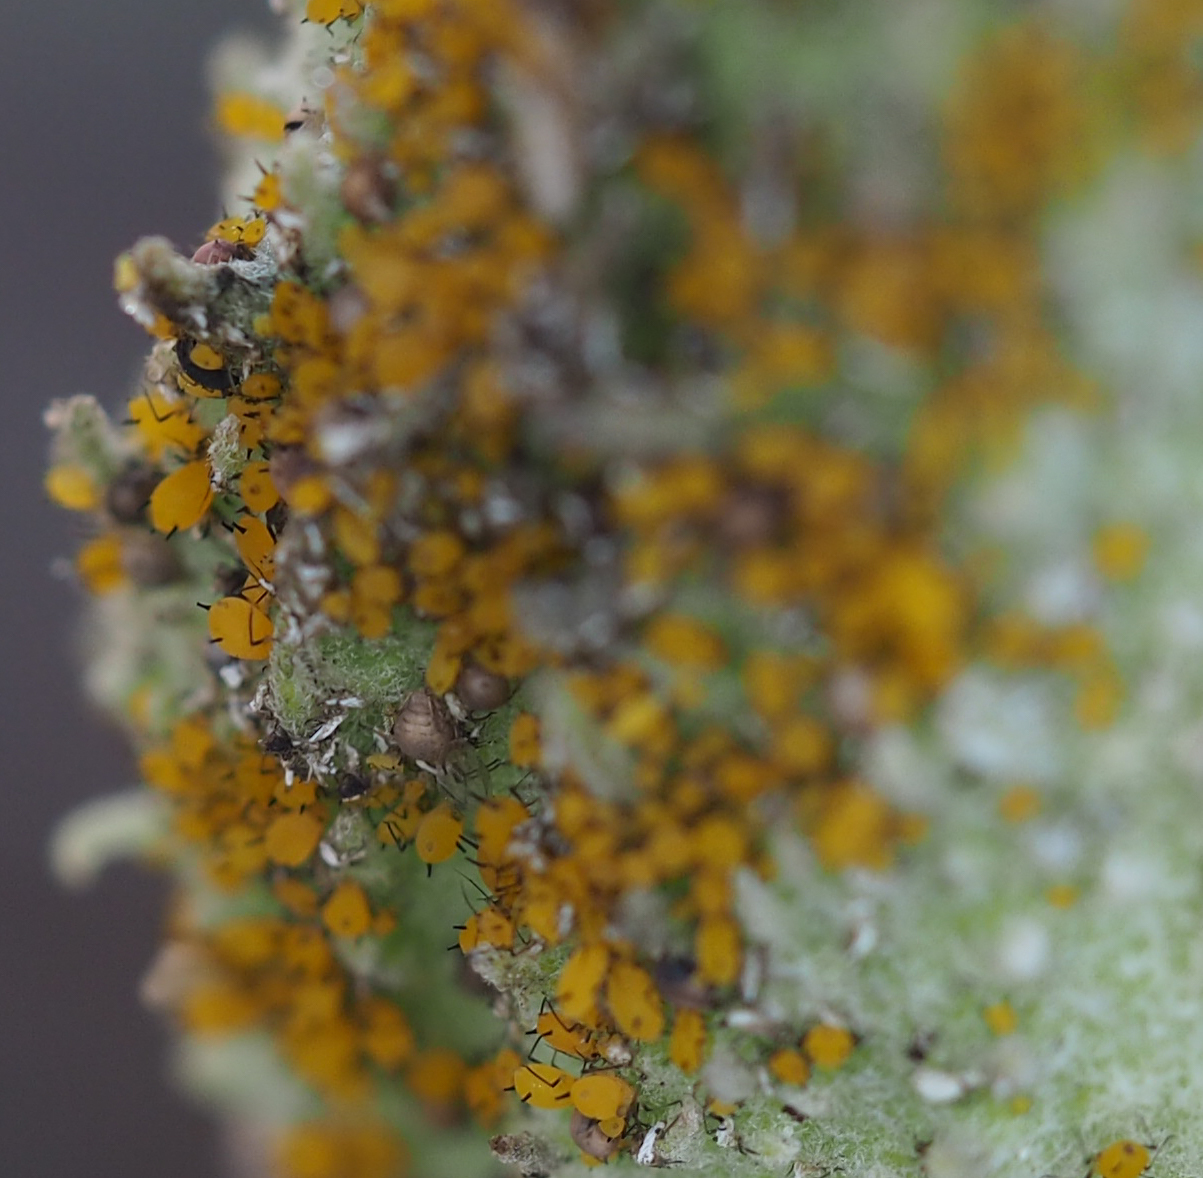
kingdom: Animalia
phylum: Arthropoda
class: Insecta
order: Hemiptera
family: Aphididae
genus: Aphis
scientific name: Aphis nerii
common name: Oleander aphid
